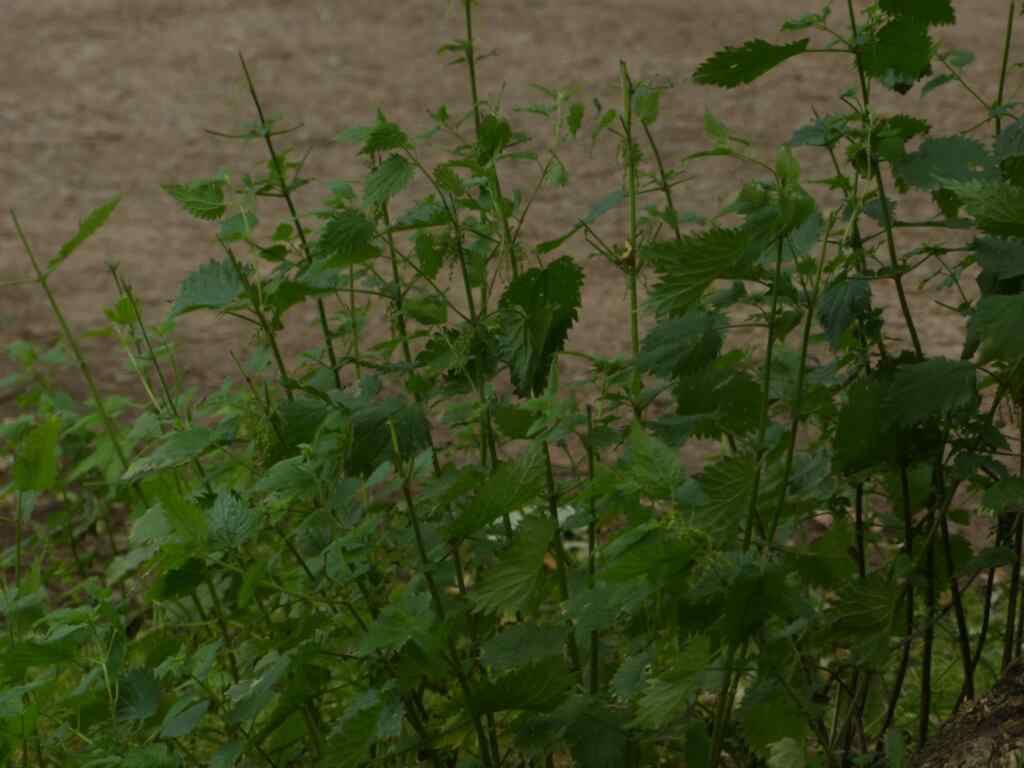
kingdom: Plantae
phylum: Tracheophyta
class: Magnoliopsida
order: Rosales
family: Urticaceae
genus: Urtica
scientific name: Urtica dioica
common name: Common nettle
